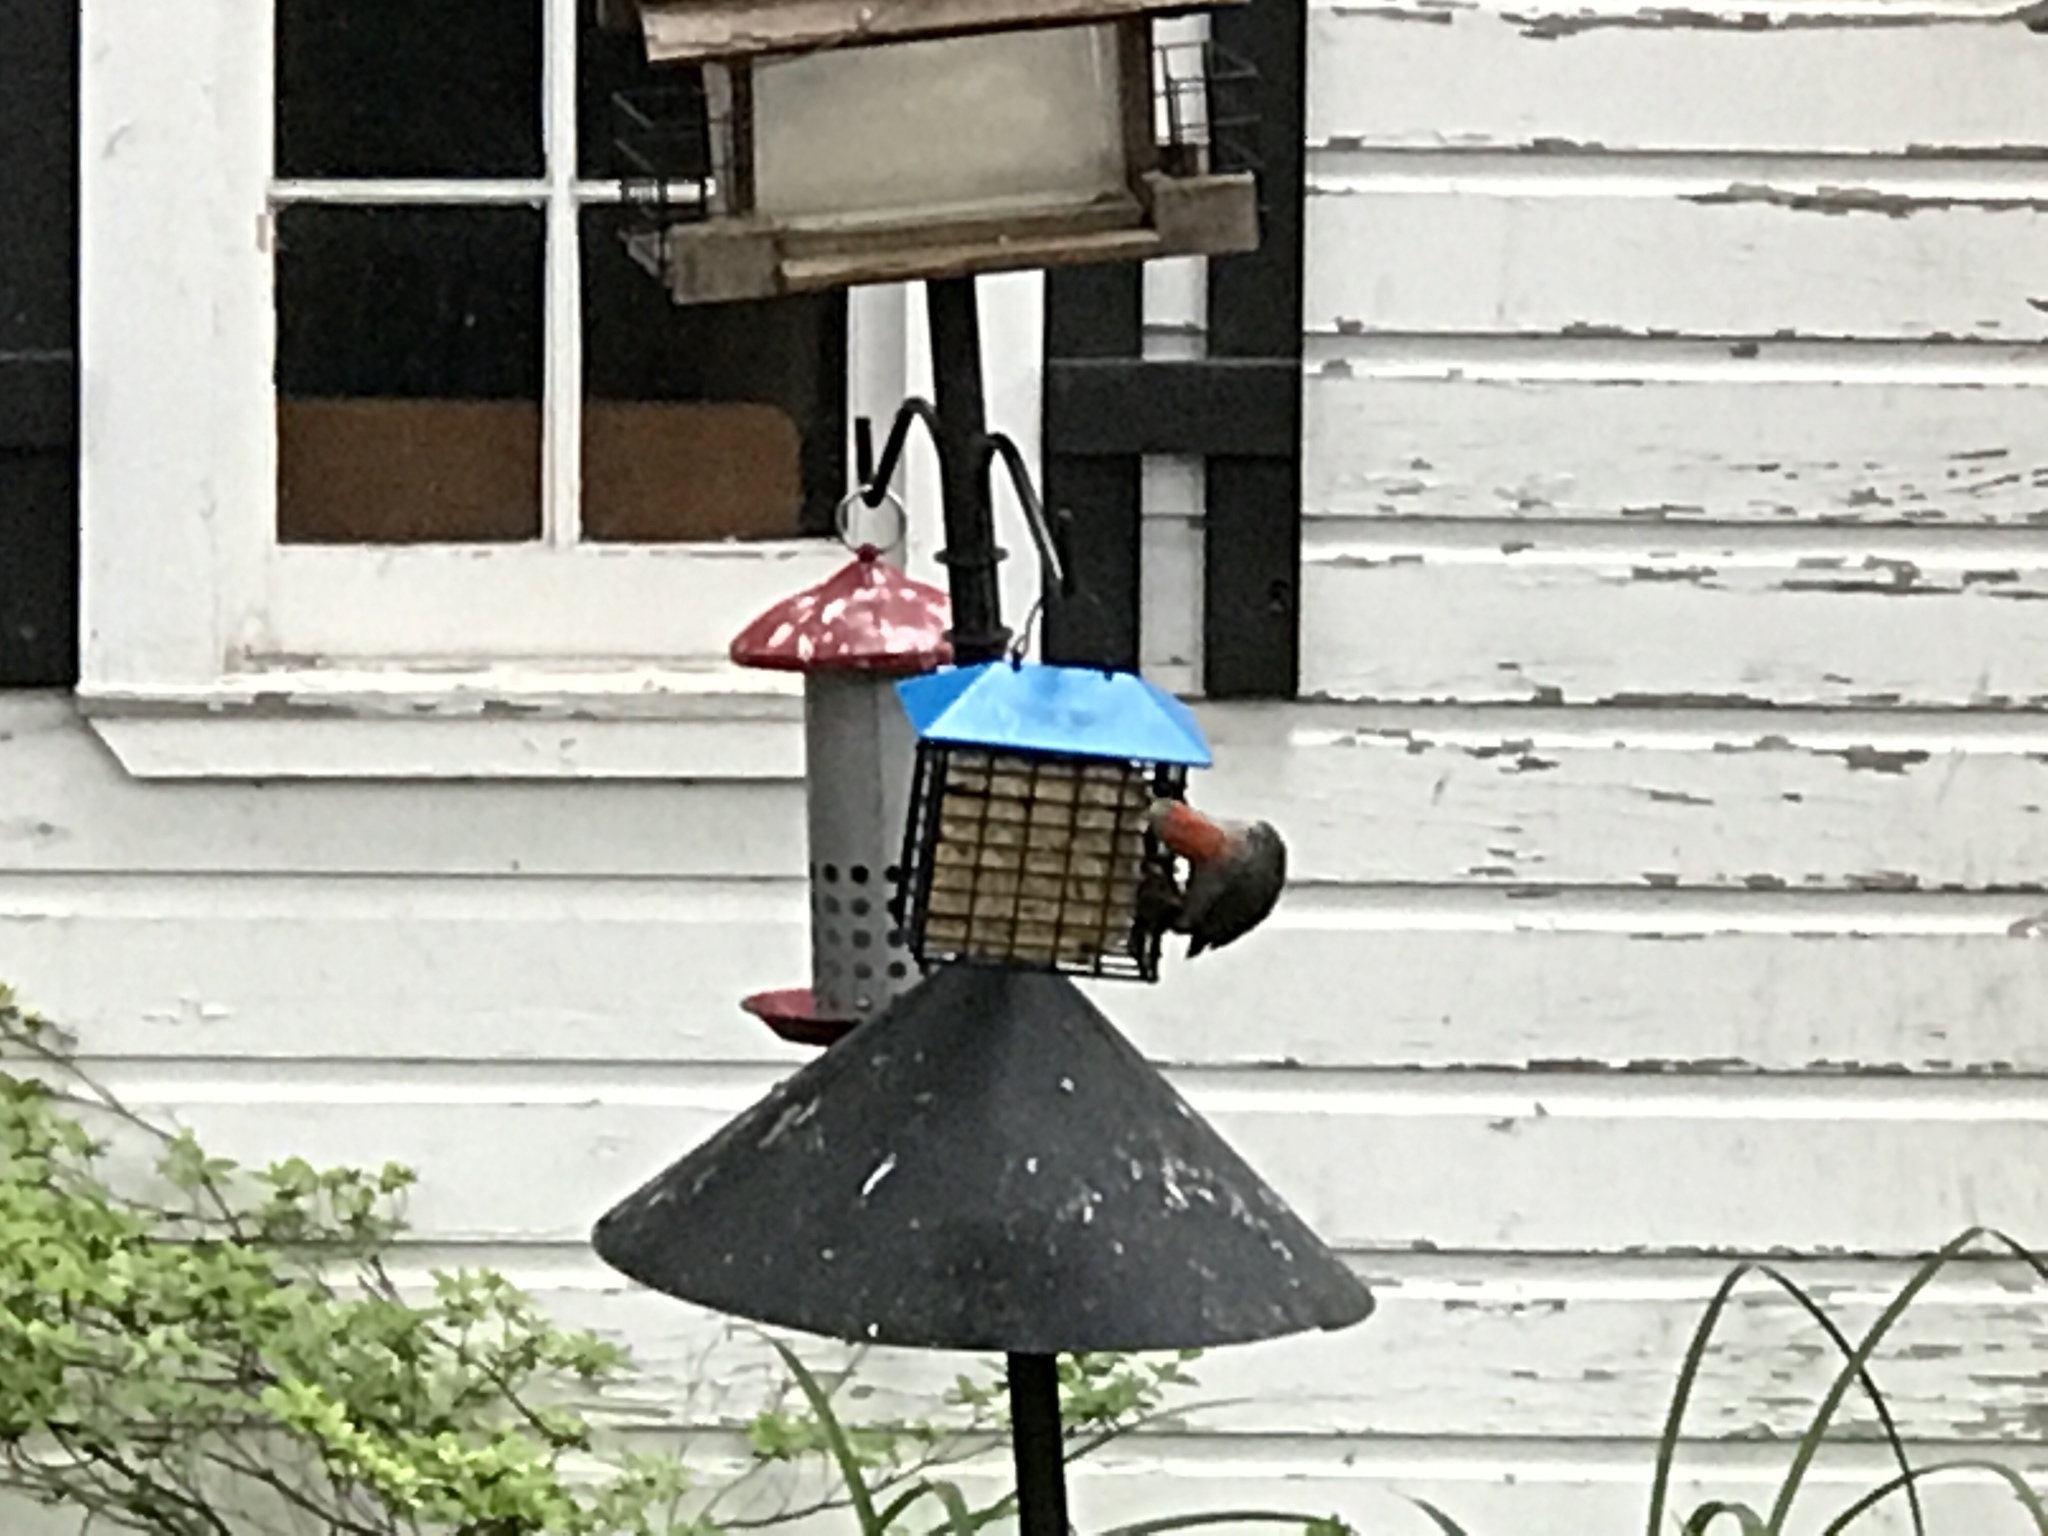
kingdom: Animalia
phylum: Chordata
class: Aves
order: Piciformes
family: Picidae
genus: Melanerpes
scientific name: Melanerpes carolinus
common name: Red-bellied woodpecker
